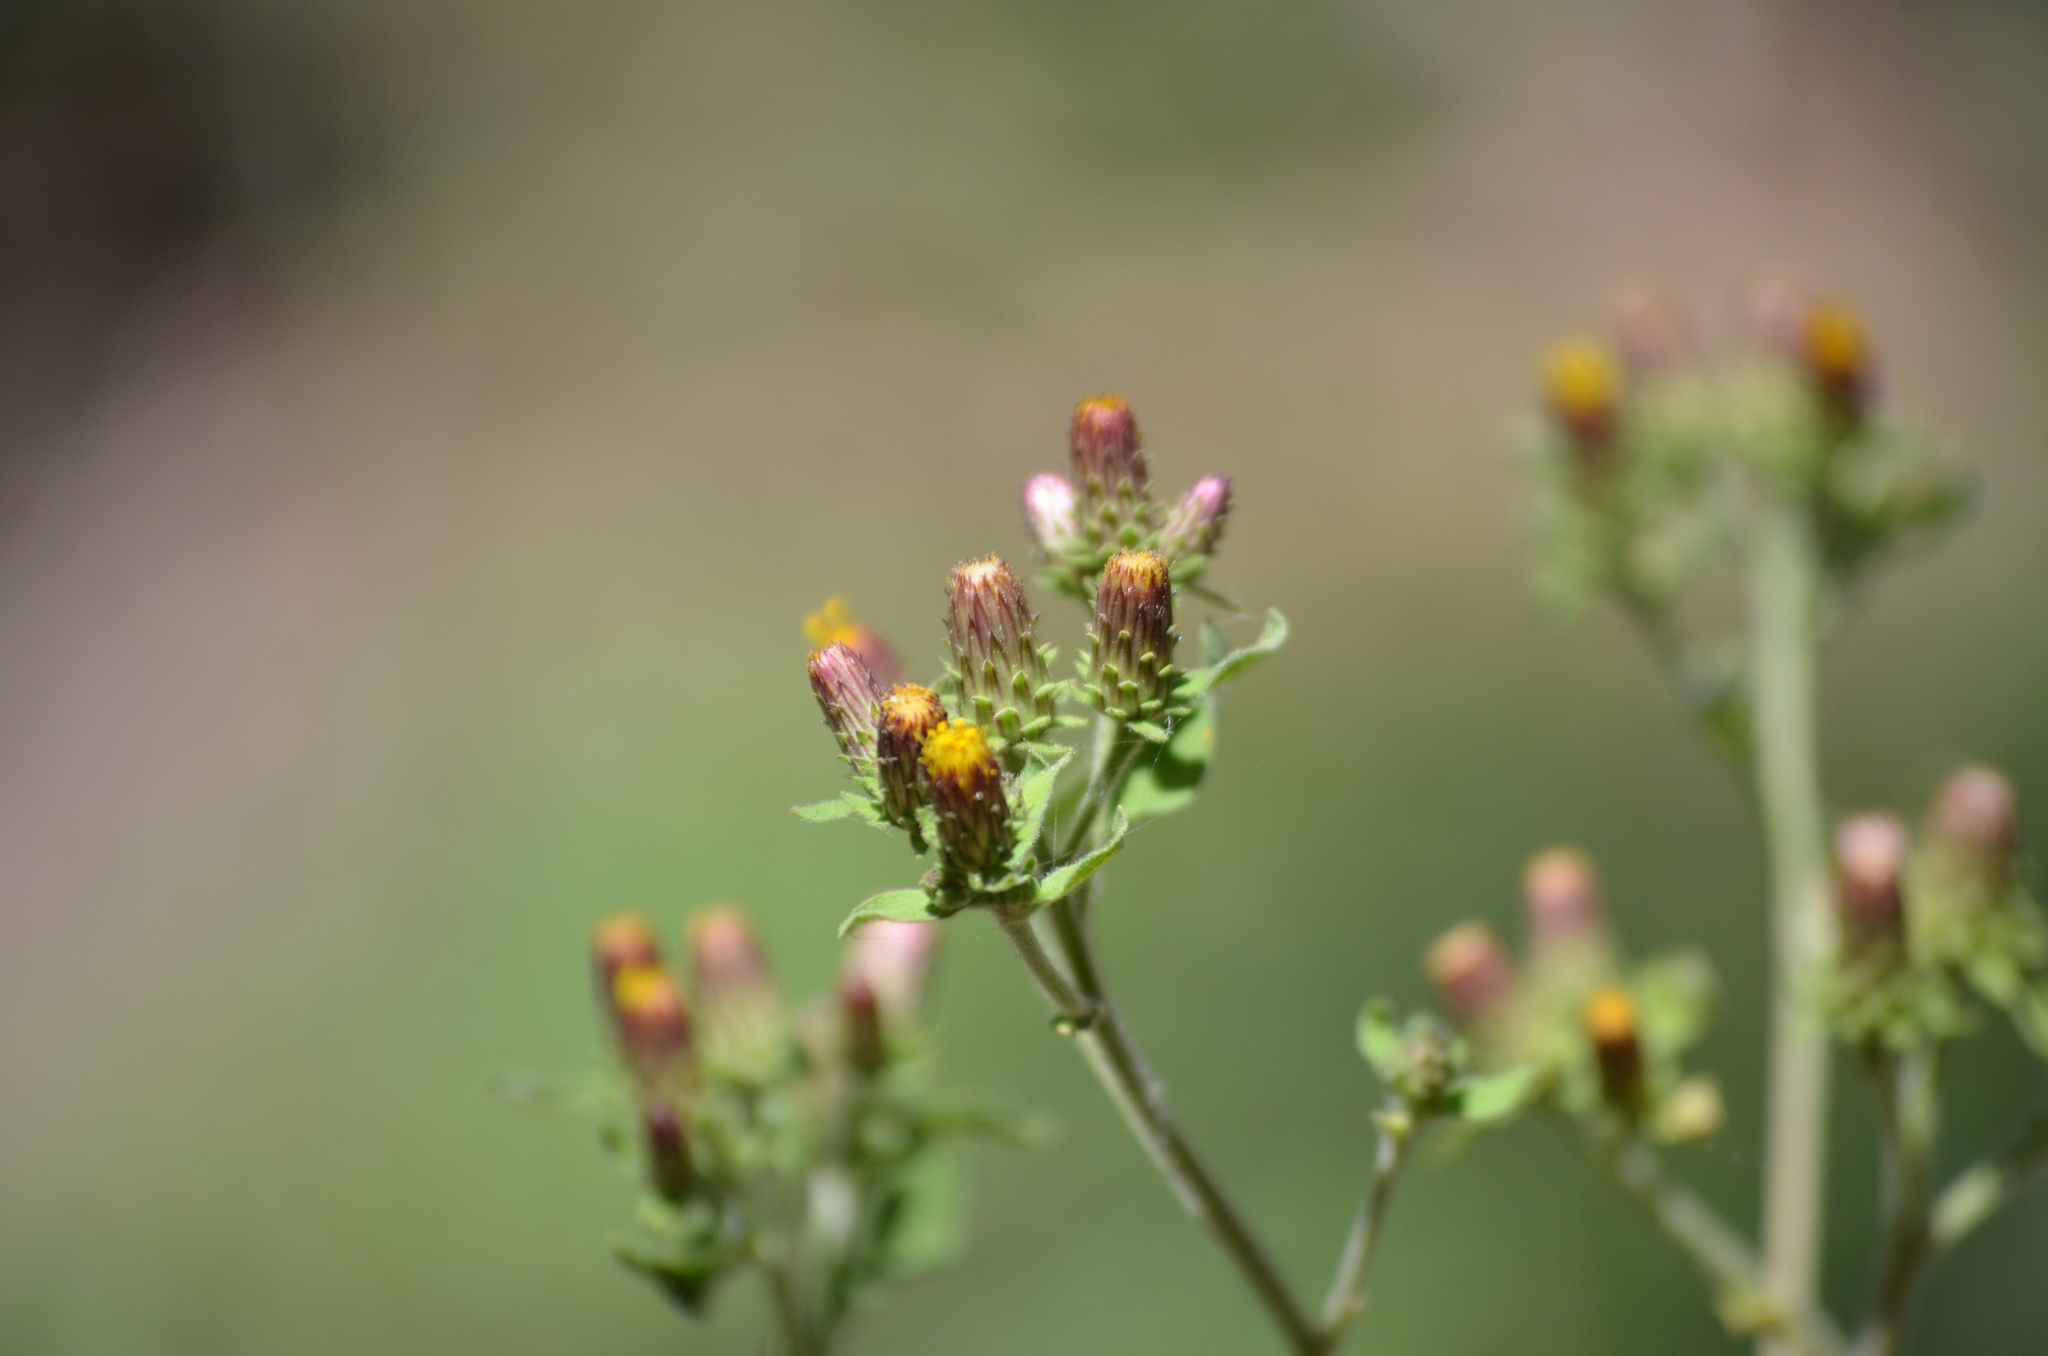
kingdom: Plantae
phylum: Tracheophyta
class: Magnoliopsida
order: Asterales
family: Asteraceae
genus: Pentanema
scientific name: Pentanema squarrosum
